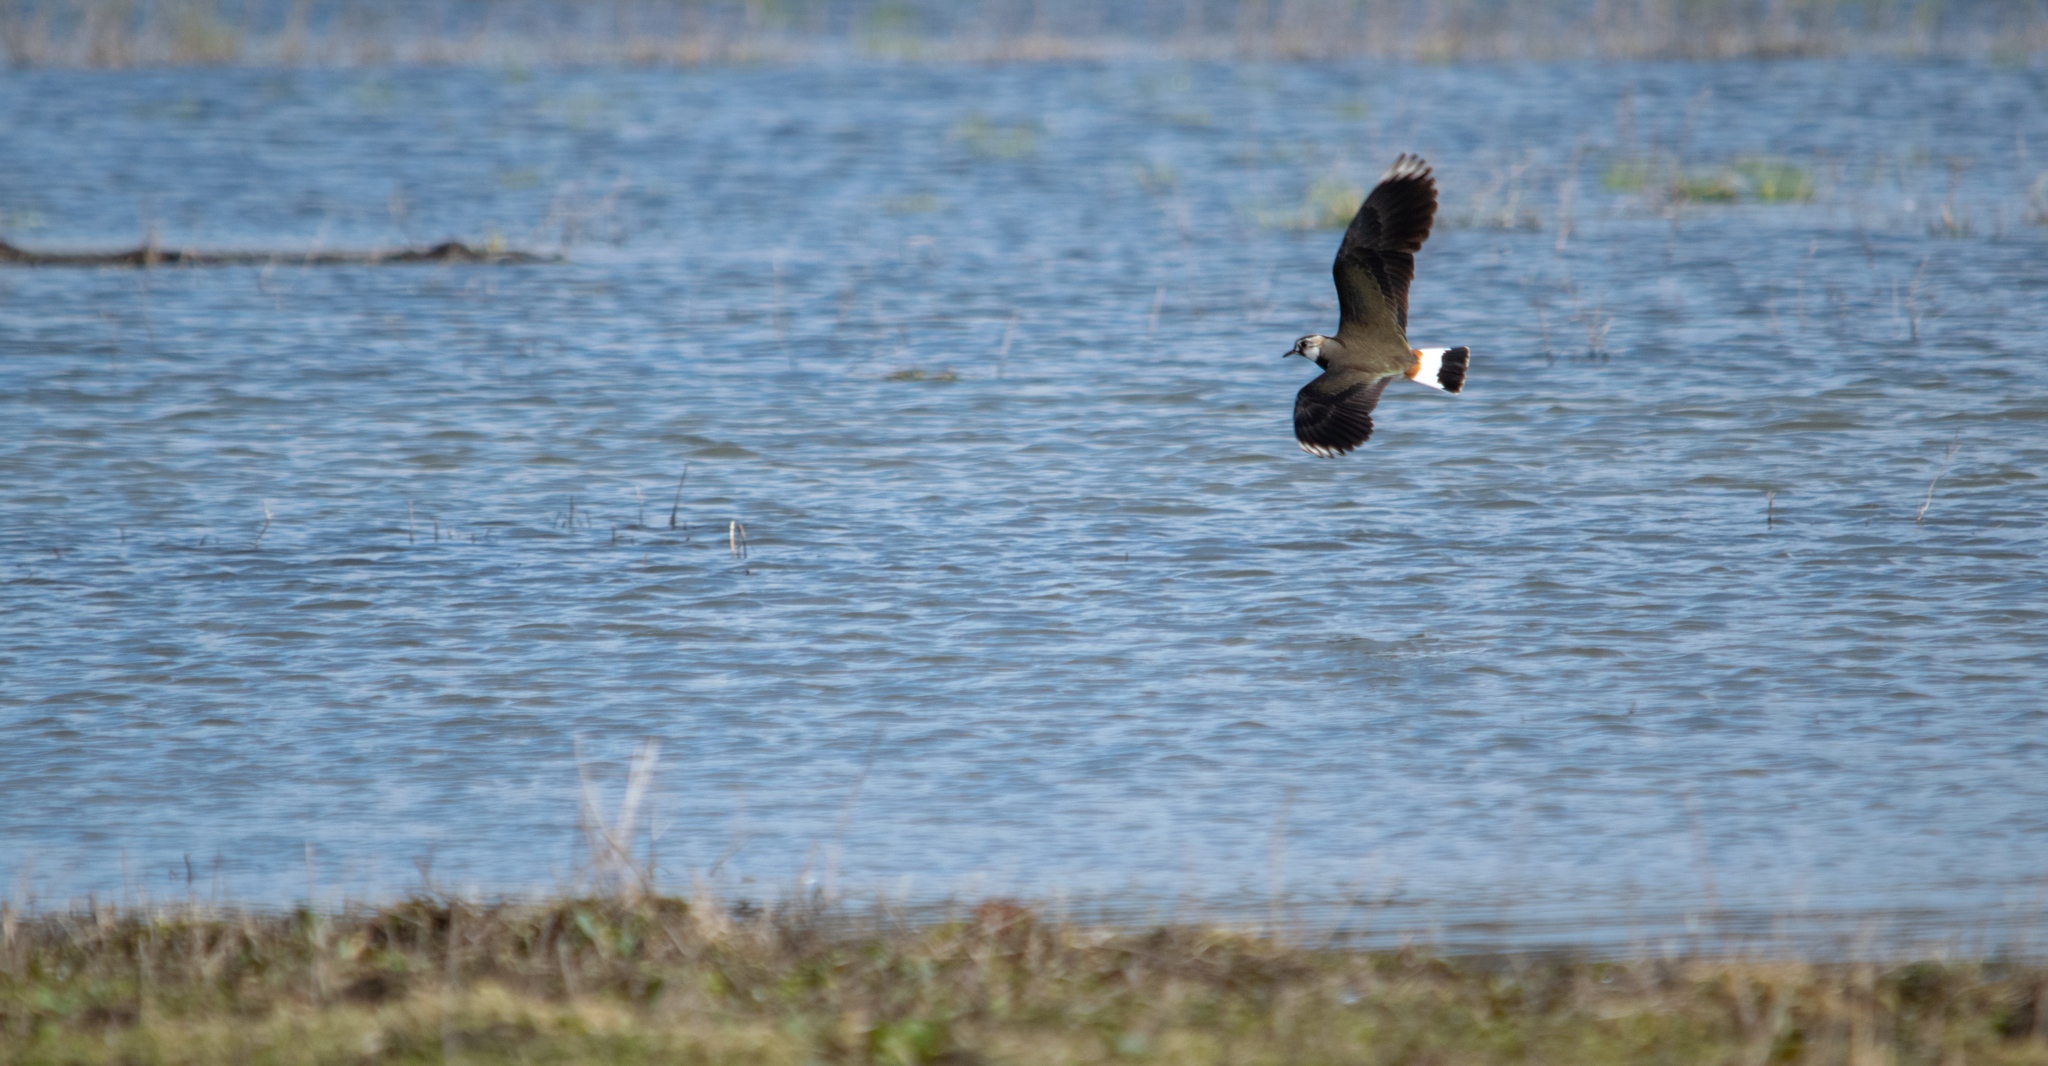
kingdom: Animalia
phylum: Chordata
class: Aves
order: Charadriiformes
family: Charadriidae
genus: Vanellus
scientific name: Vanellus vanellus
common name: Northern lapwing
